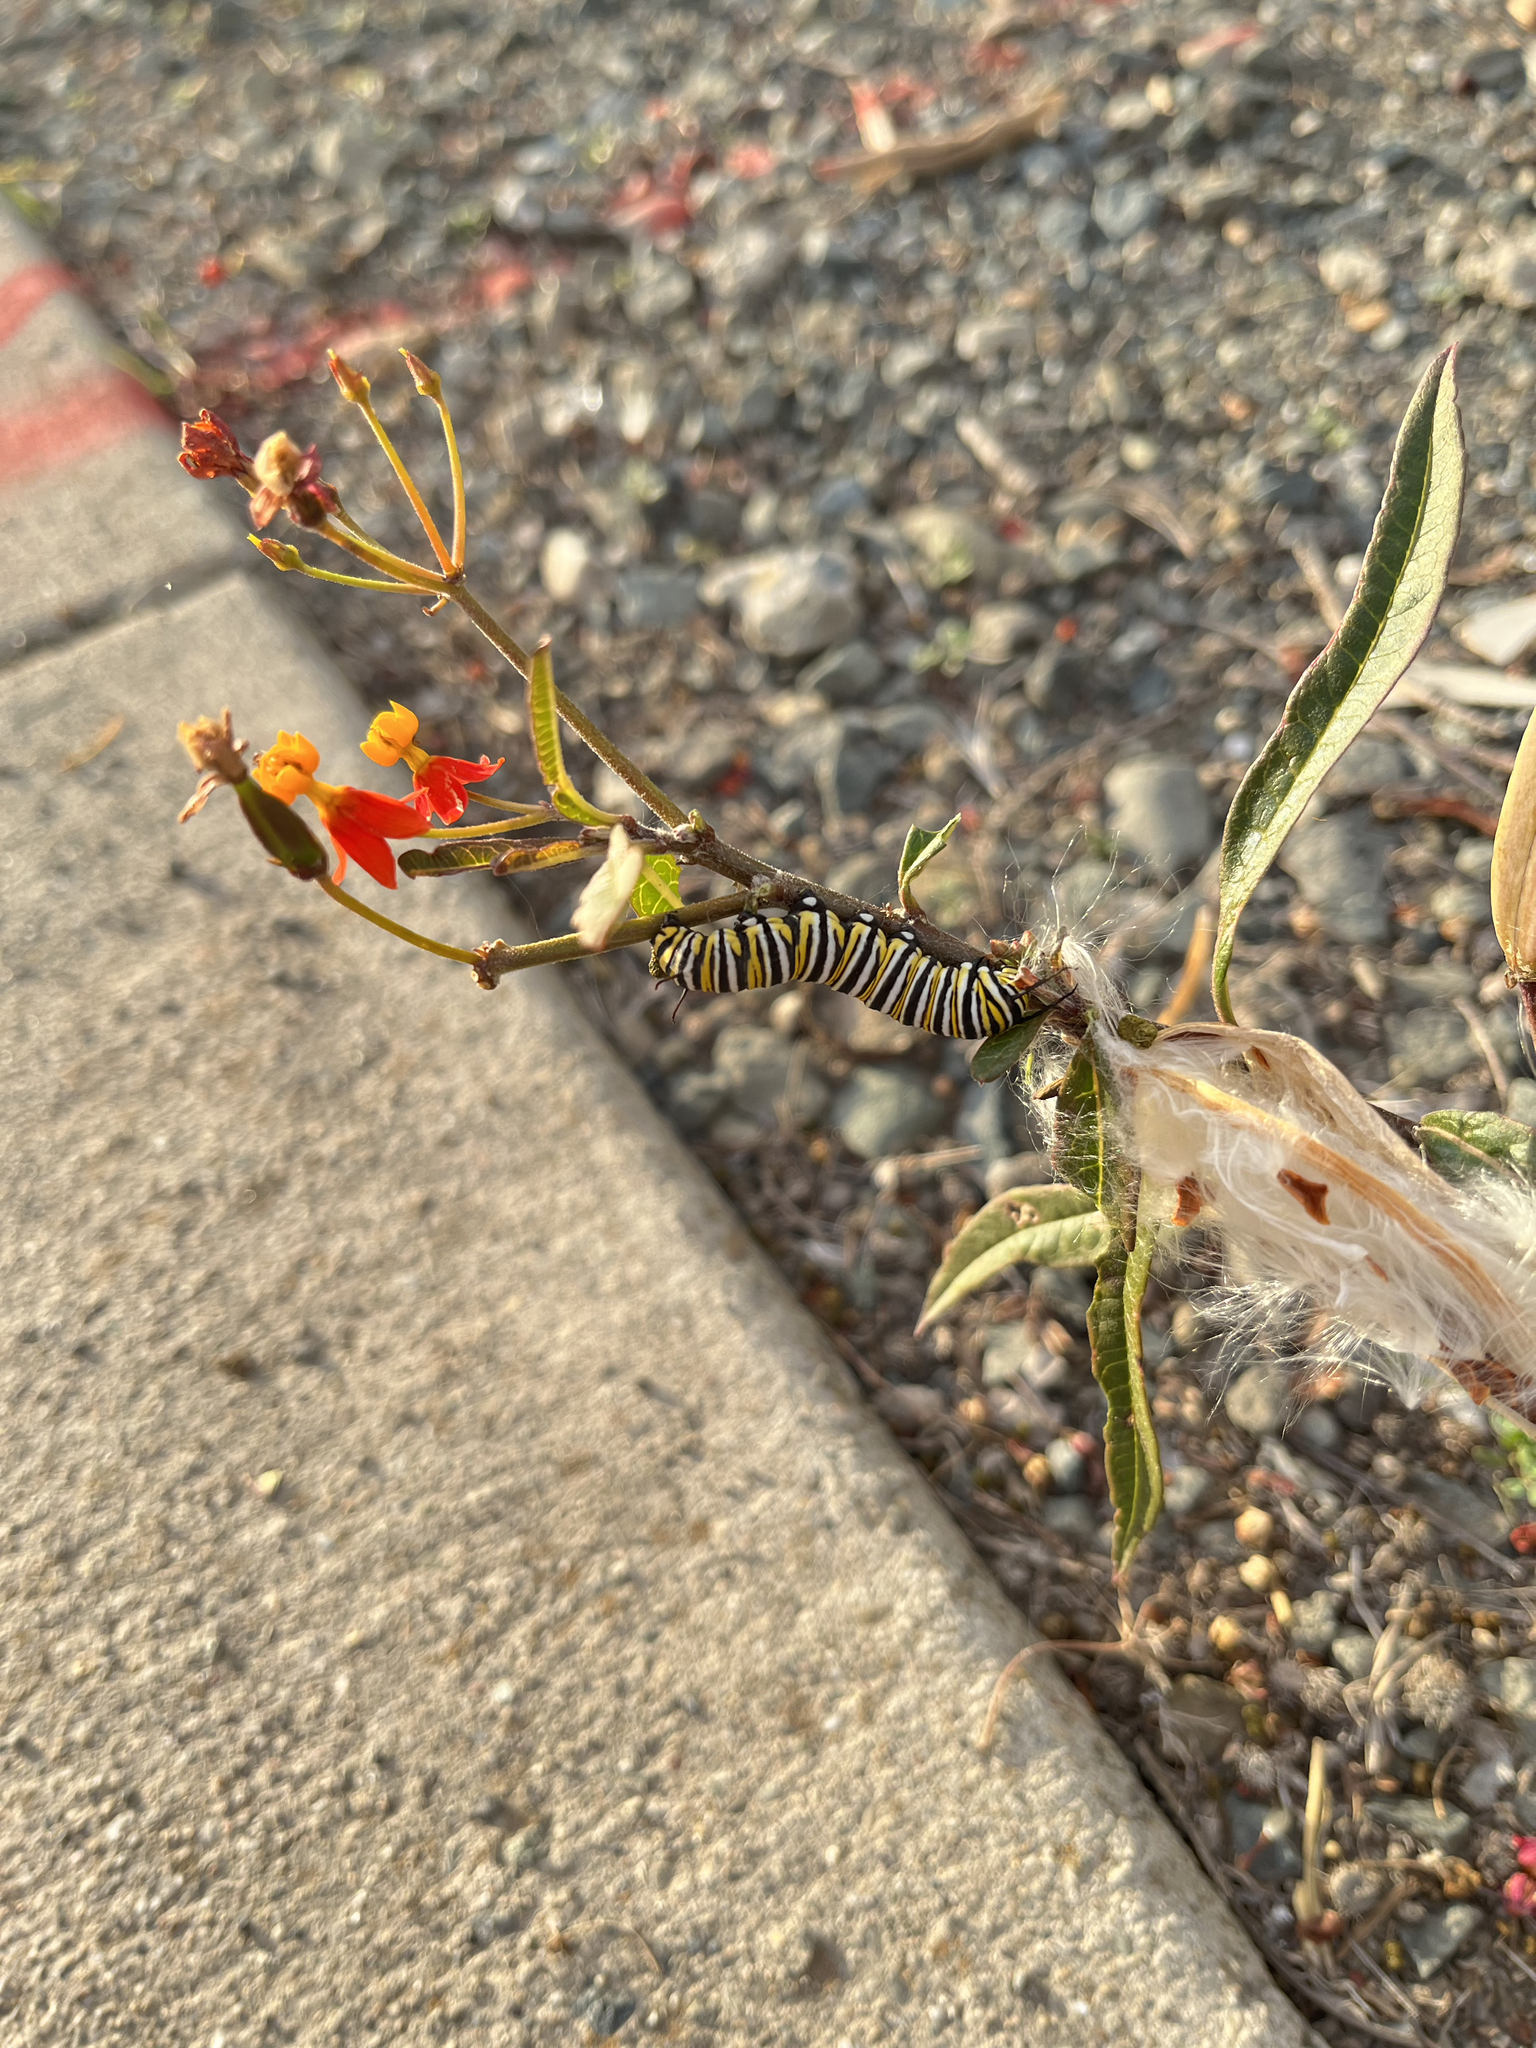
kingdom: Animalia
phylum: Arthropoda
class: Insecta
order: Lepidoptera
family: Nymphalidae
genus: Danaus
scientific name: Danaus plexippus
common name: Monarch
